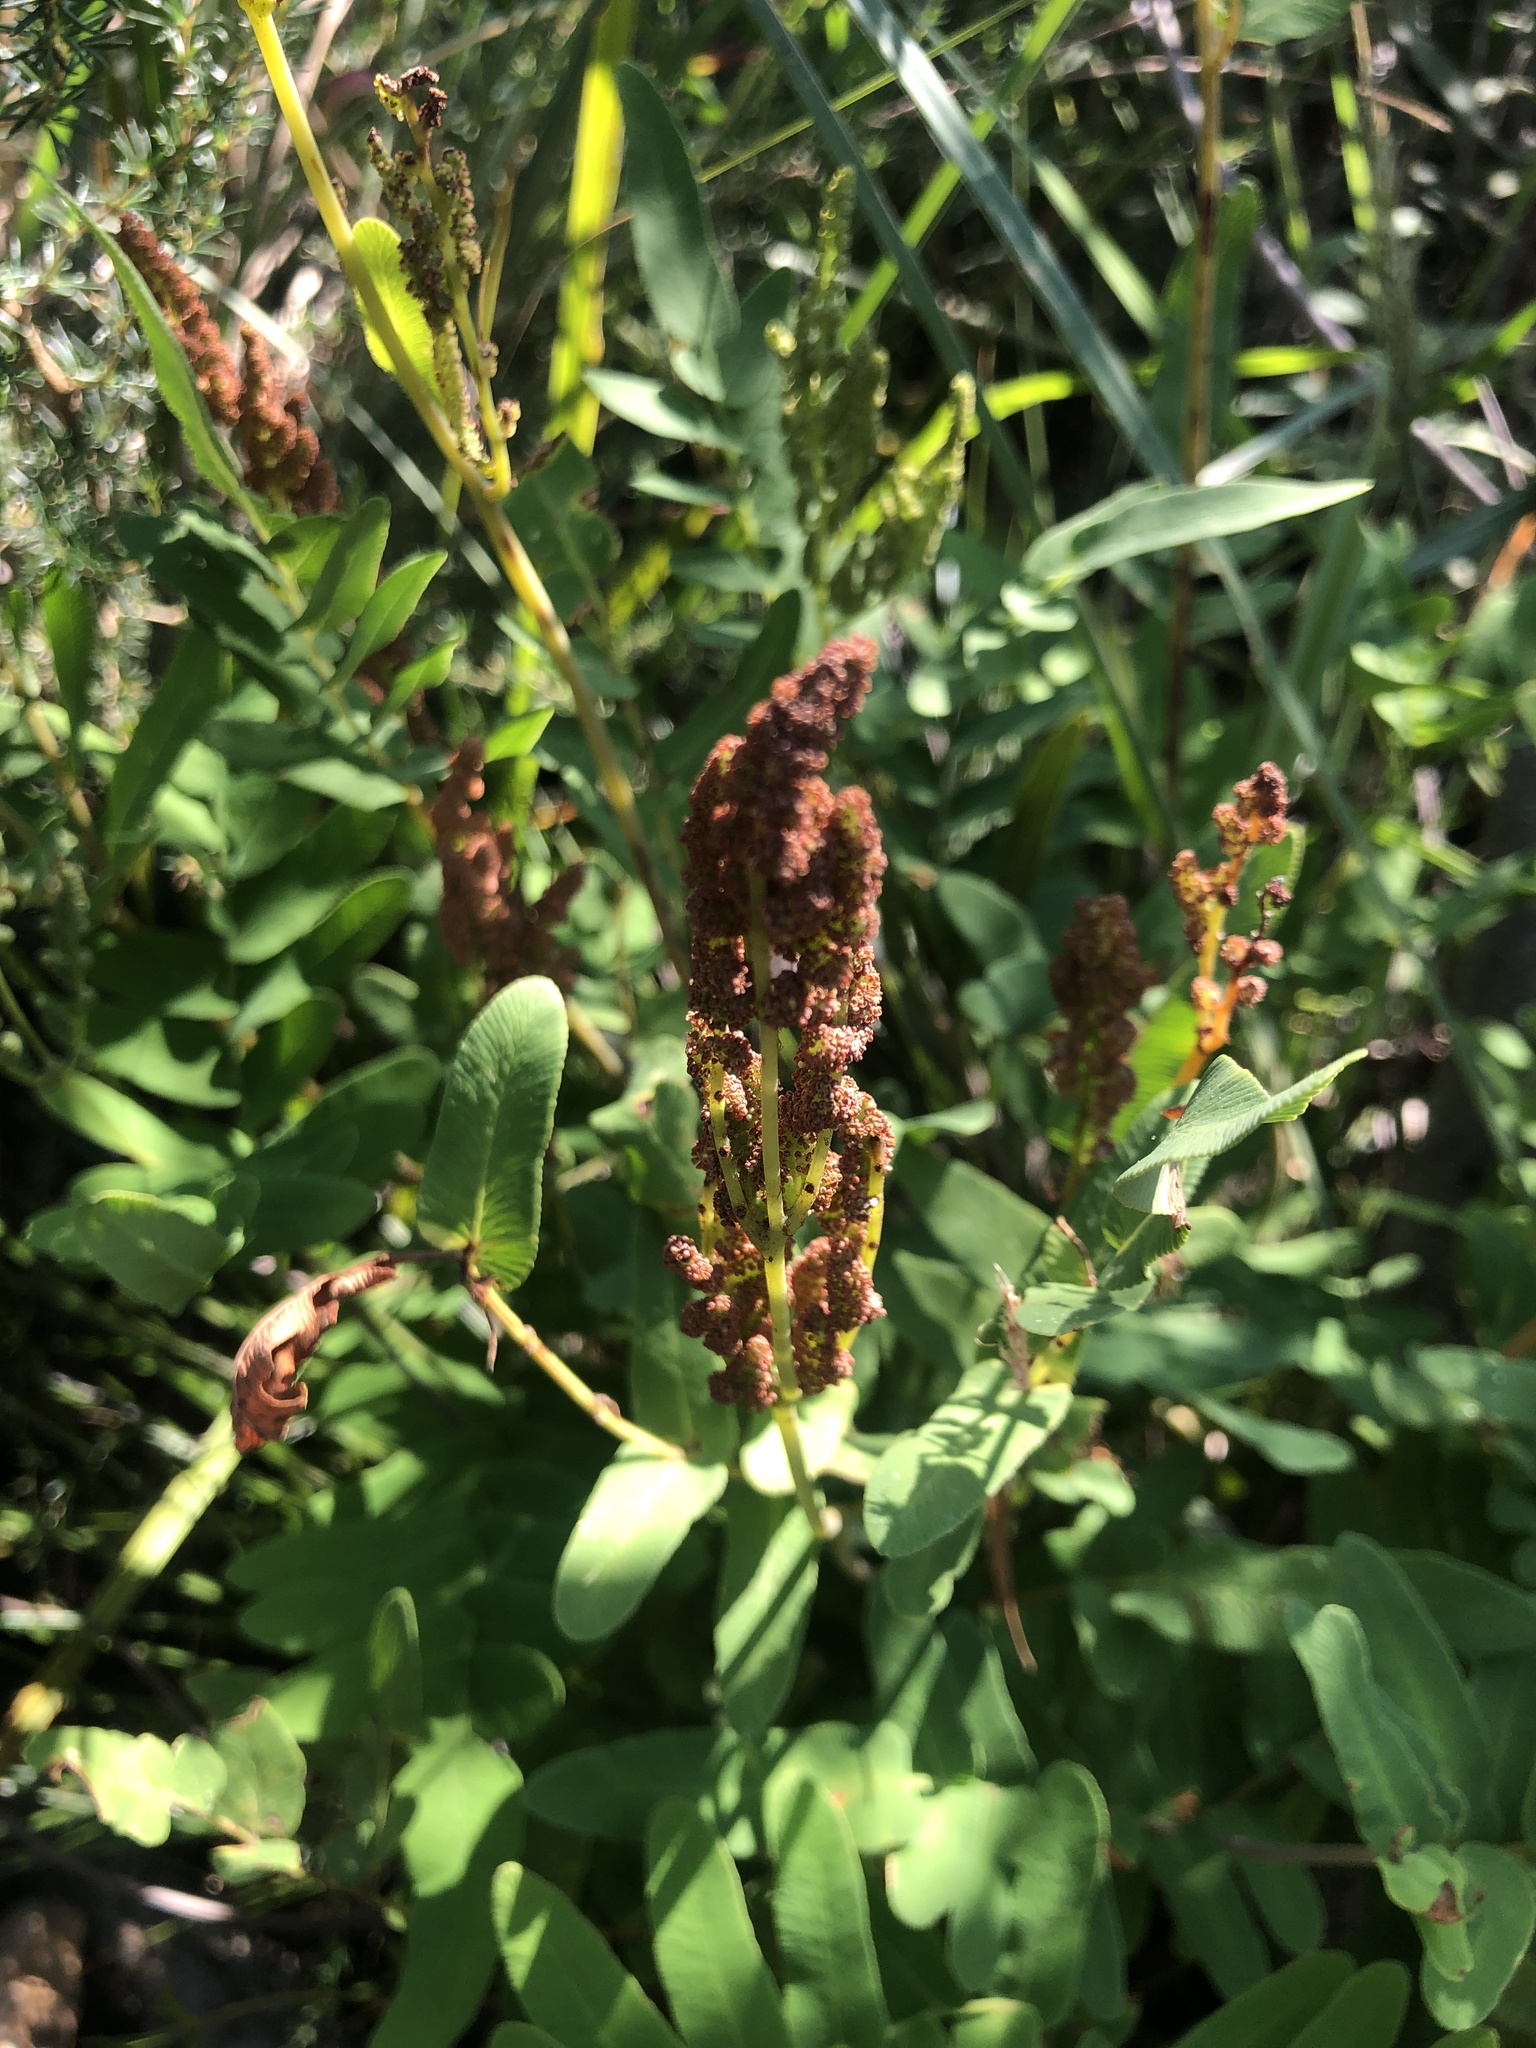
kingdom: Plantae
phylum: Tracheophyta
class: Polypodiopsida
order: Osmundales
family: Osmundaceae
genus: Osmunda
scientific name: Osmunda acuta
